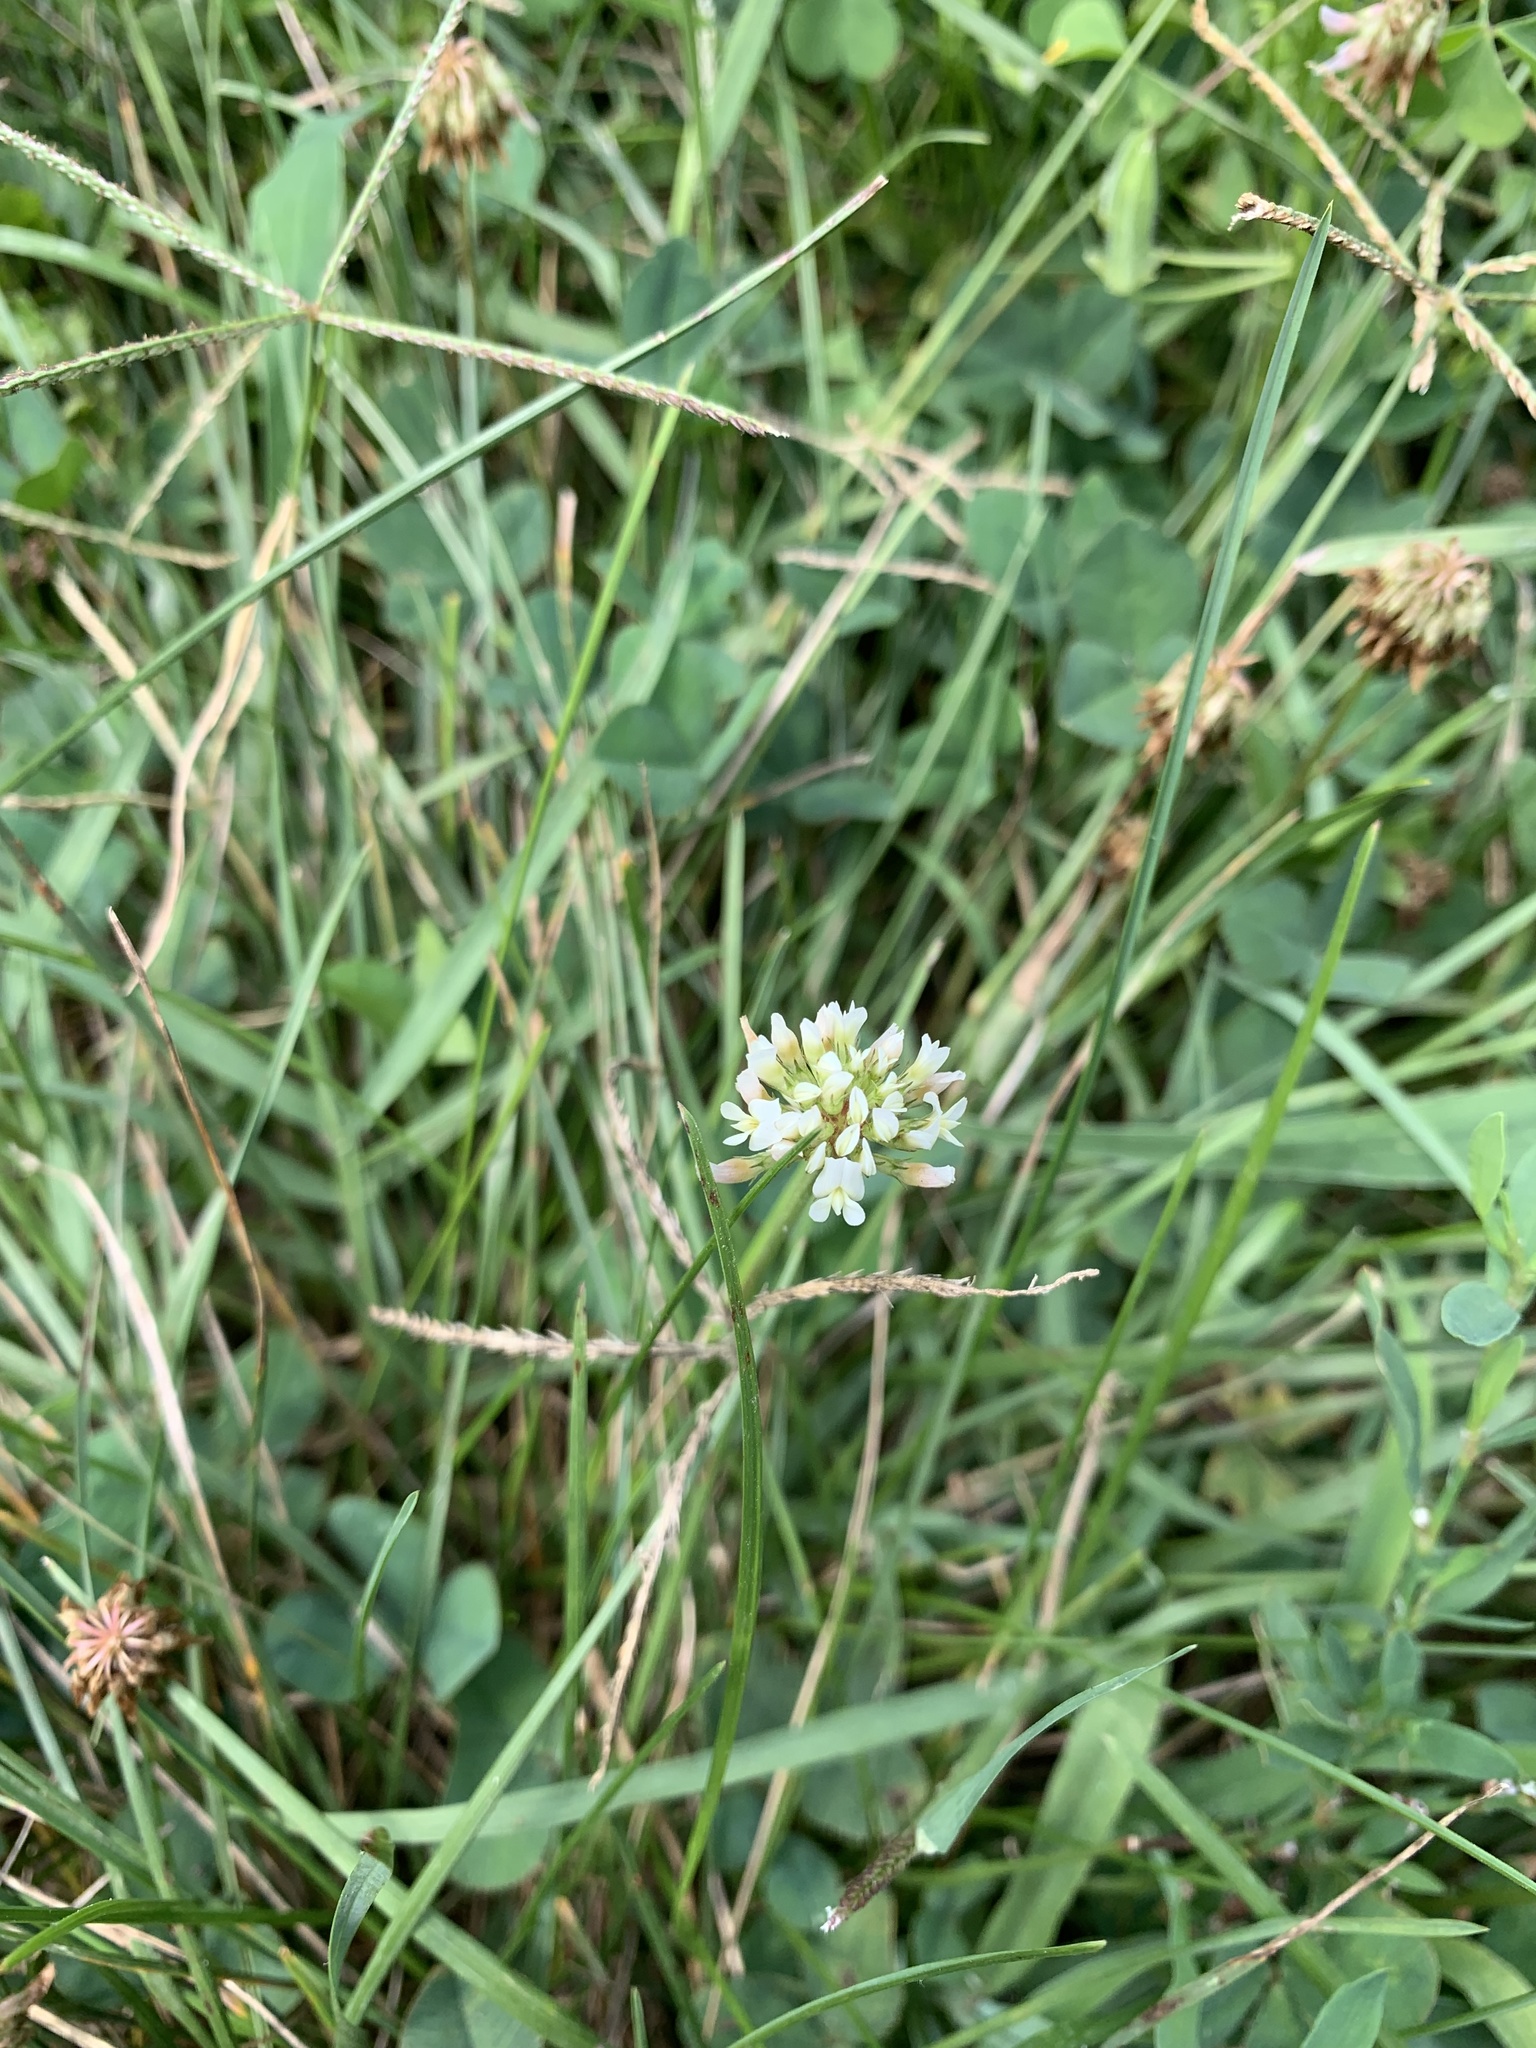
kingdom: Plantae
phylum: Tracheophyta
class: Magnoliopsida
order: Fabales
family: Fabaceae
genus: Trifolium
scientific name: Trifolium repens
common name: White clover
